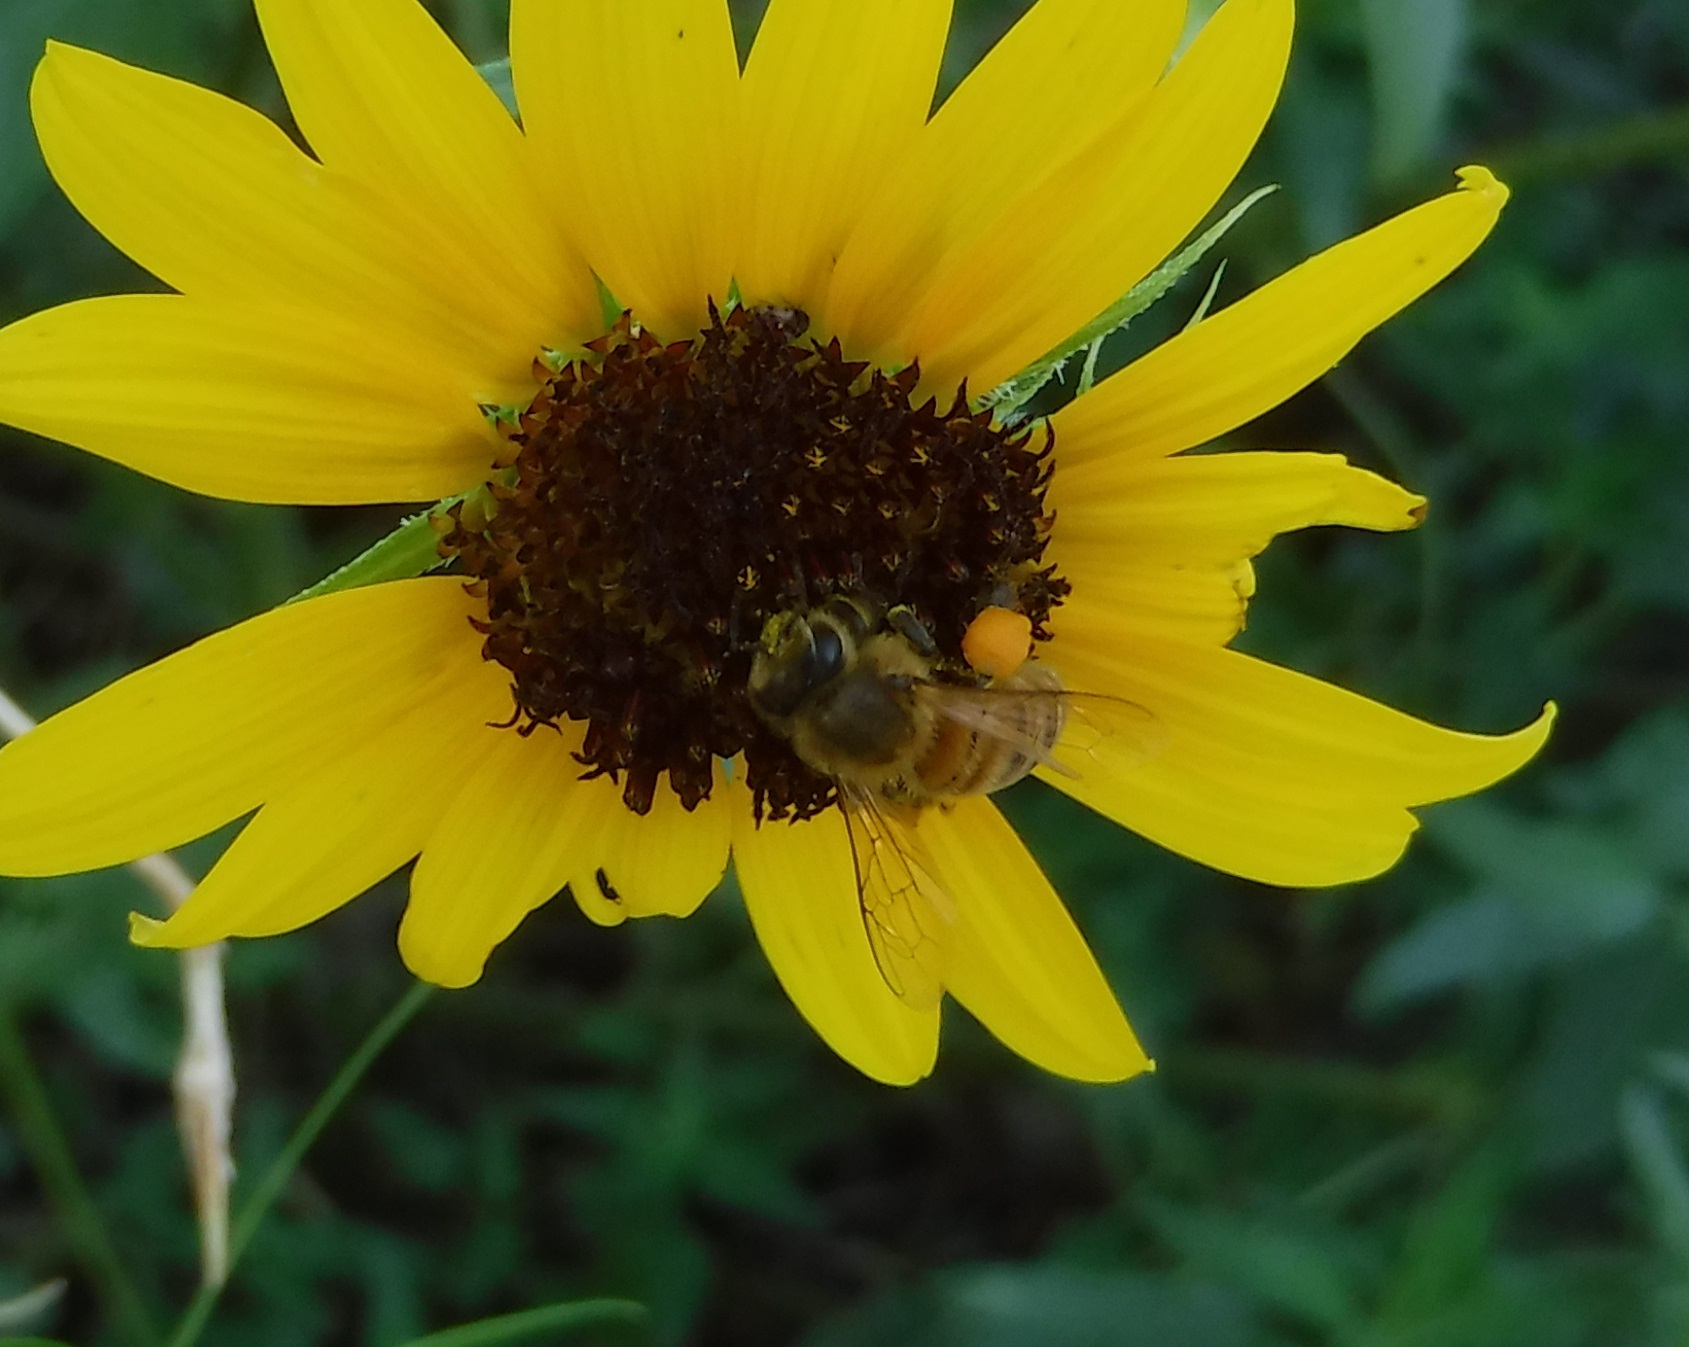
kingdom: Animalia
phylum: Arthropoda
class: Insecta
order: Hymenoptera
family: Apidae
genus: Apis
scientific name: Apis mellifera
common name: Honey bee
